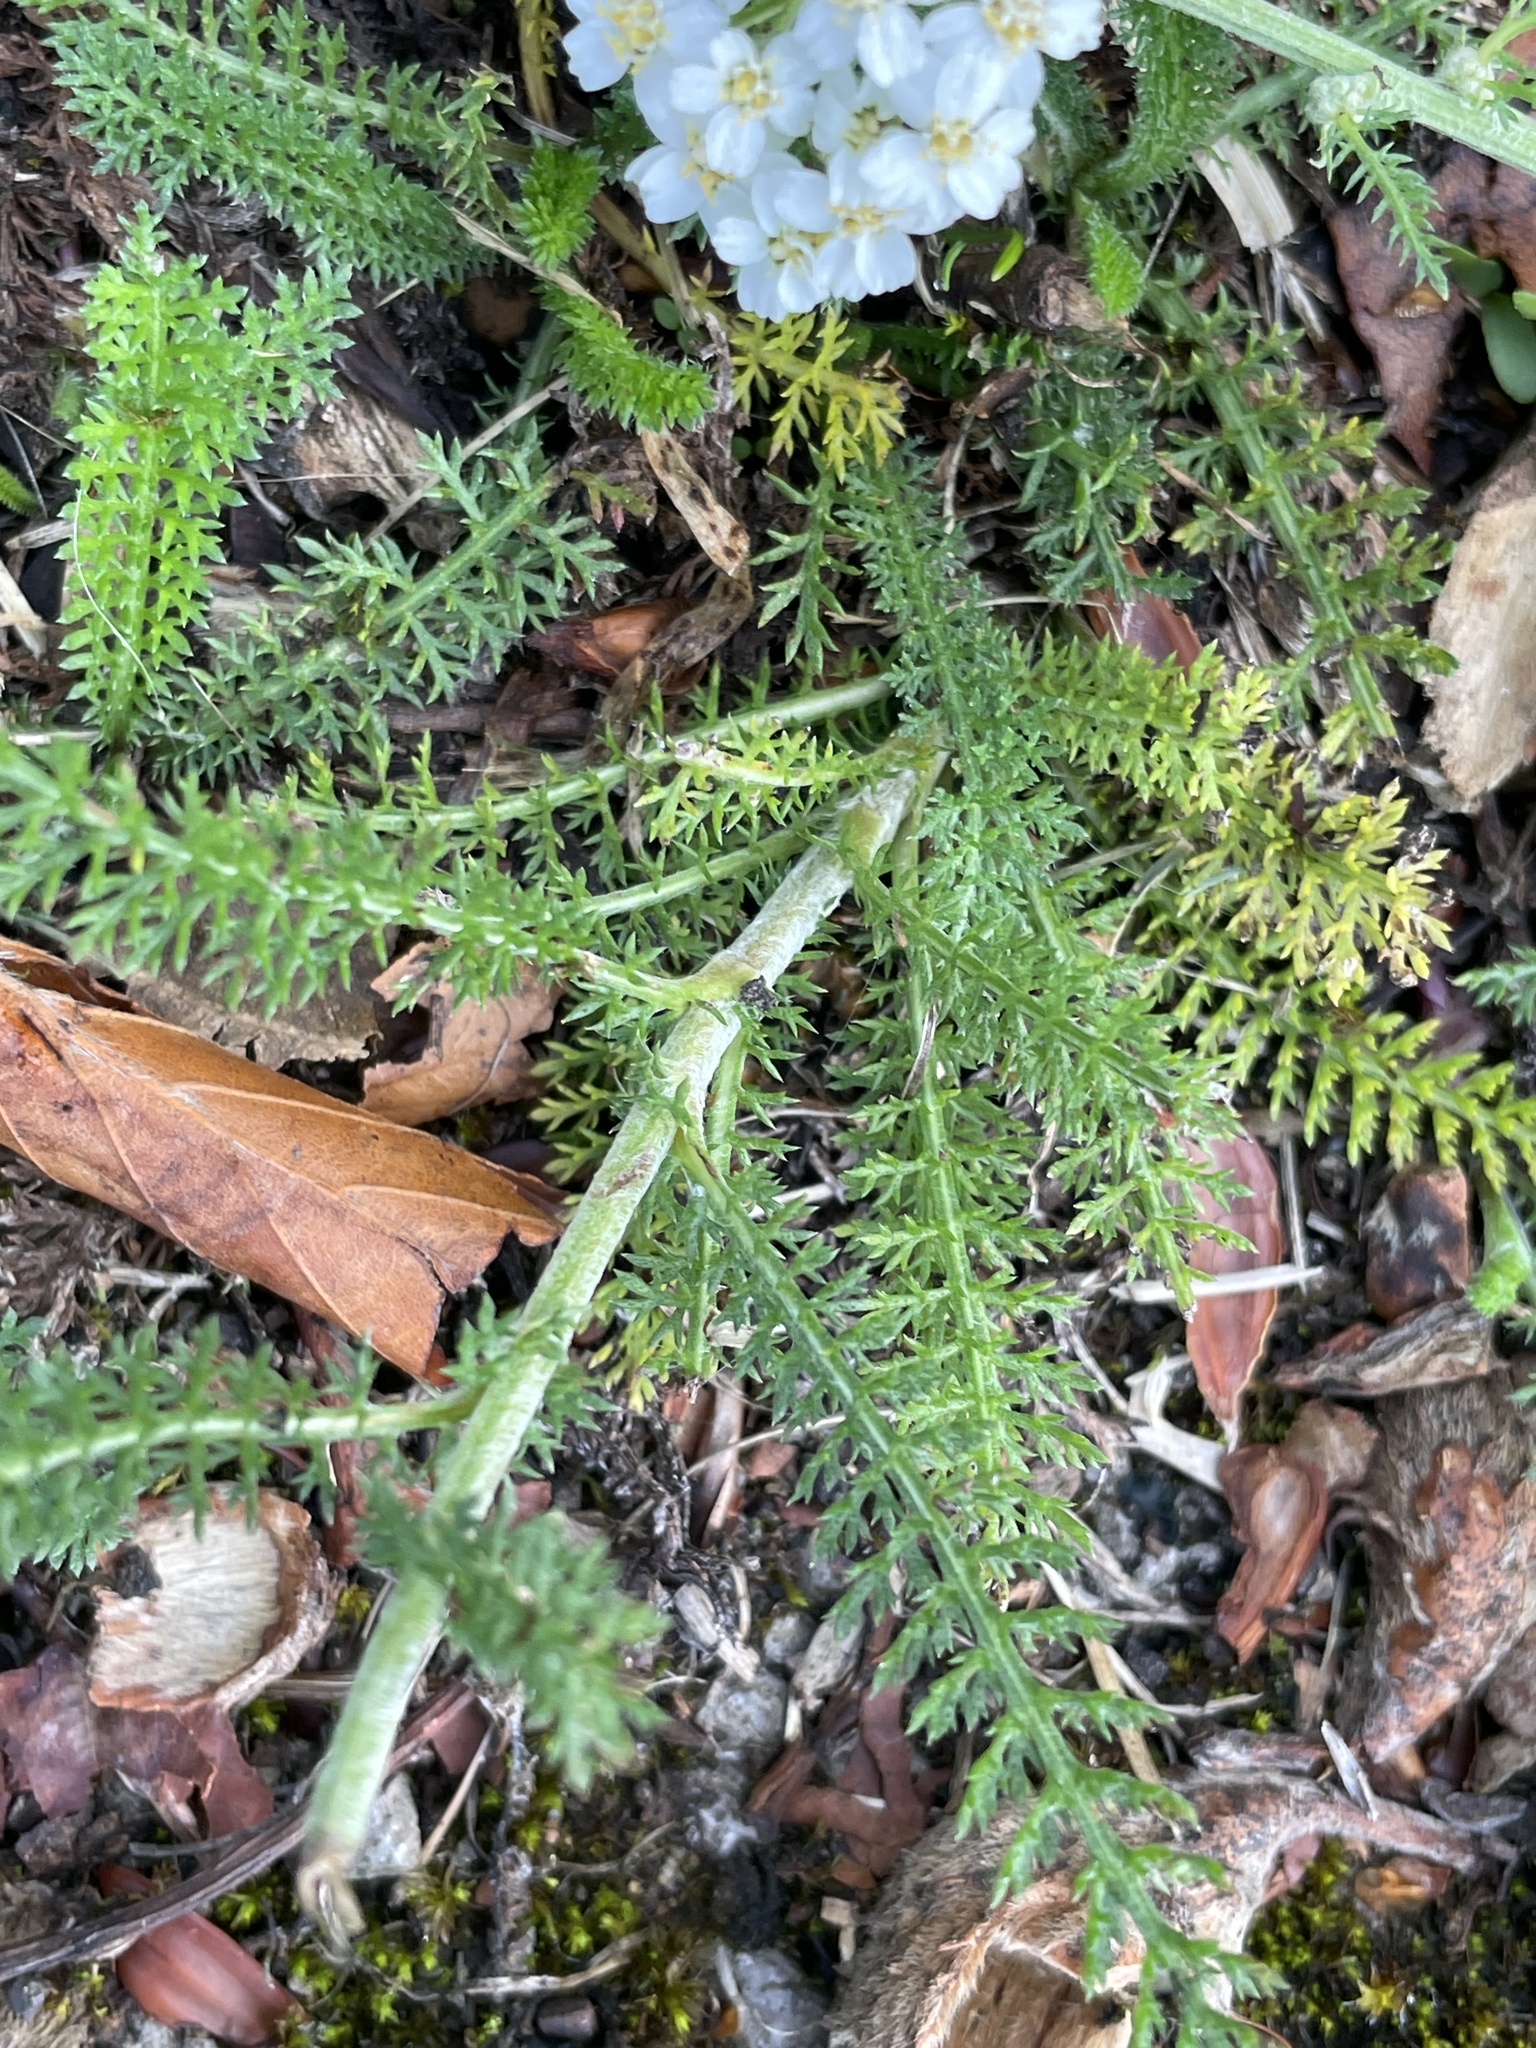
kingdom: Plantae
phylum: Tracheophyta
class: Magnoliopsida
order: Asterales
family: Asteraceae
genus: Achillea
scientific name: Achillea millefolium
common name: Yarrow
